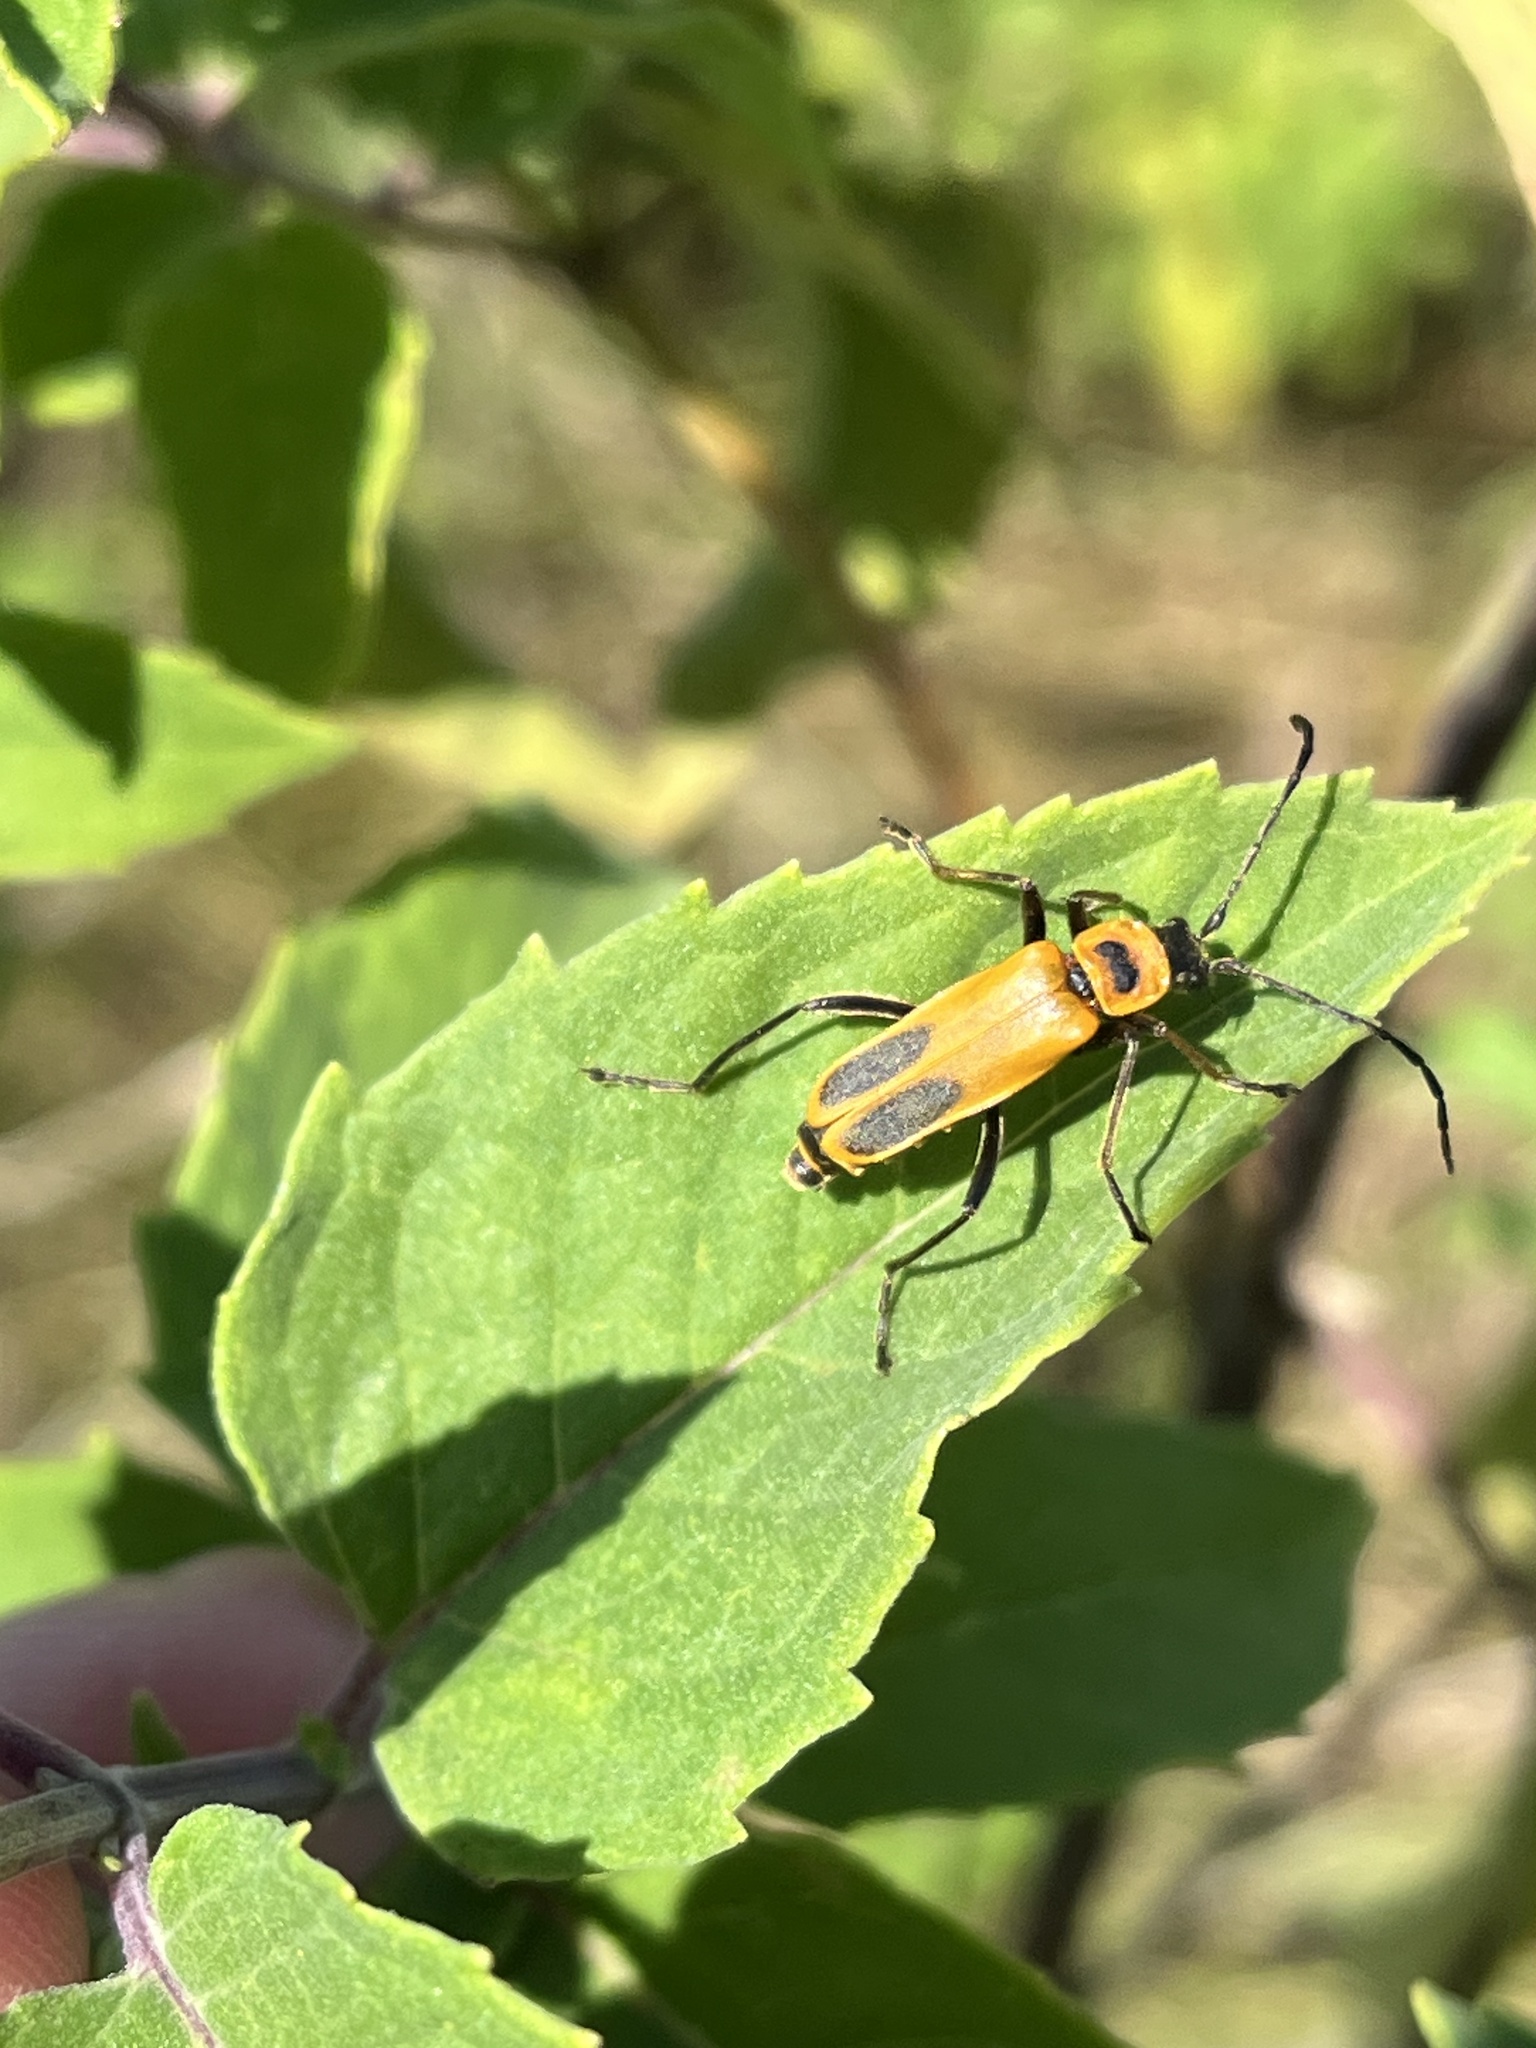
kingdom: Animalia
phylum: Arthropoda
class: Insecta
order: Coleoptera
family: Cantharidae
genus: Chauliognathus
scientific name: Chauliognathus pensylvanicus
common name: Goldenrod soldier beetle
